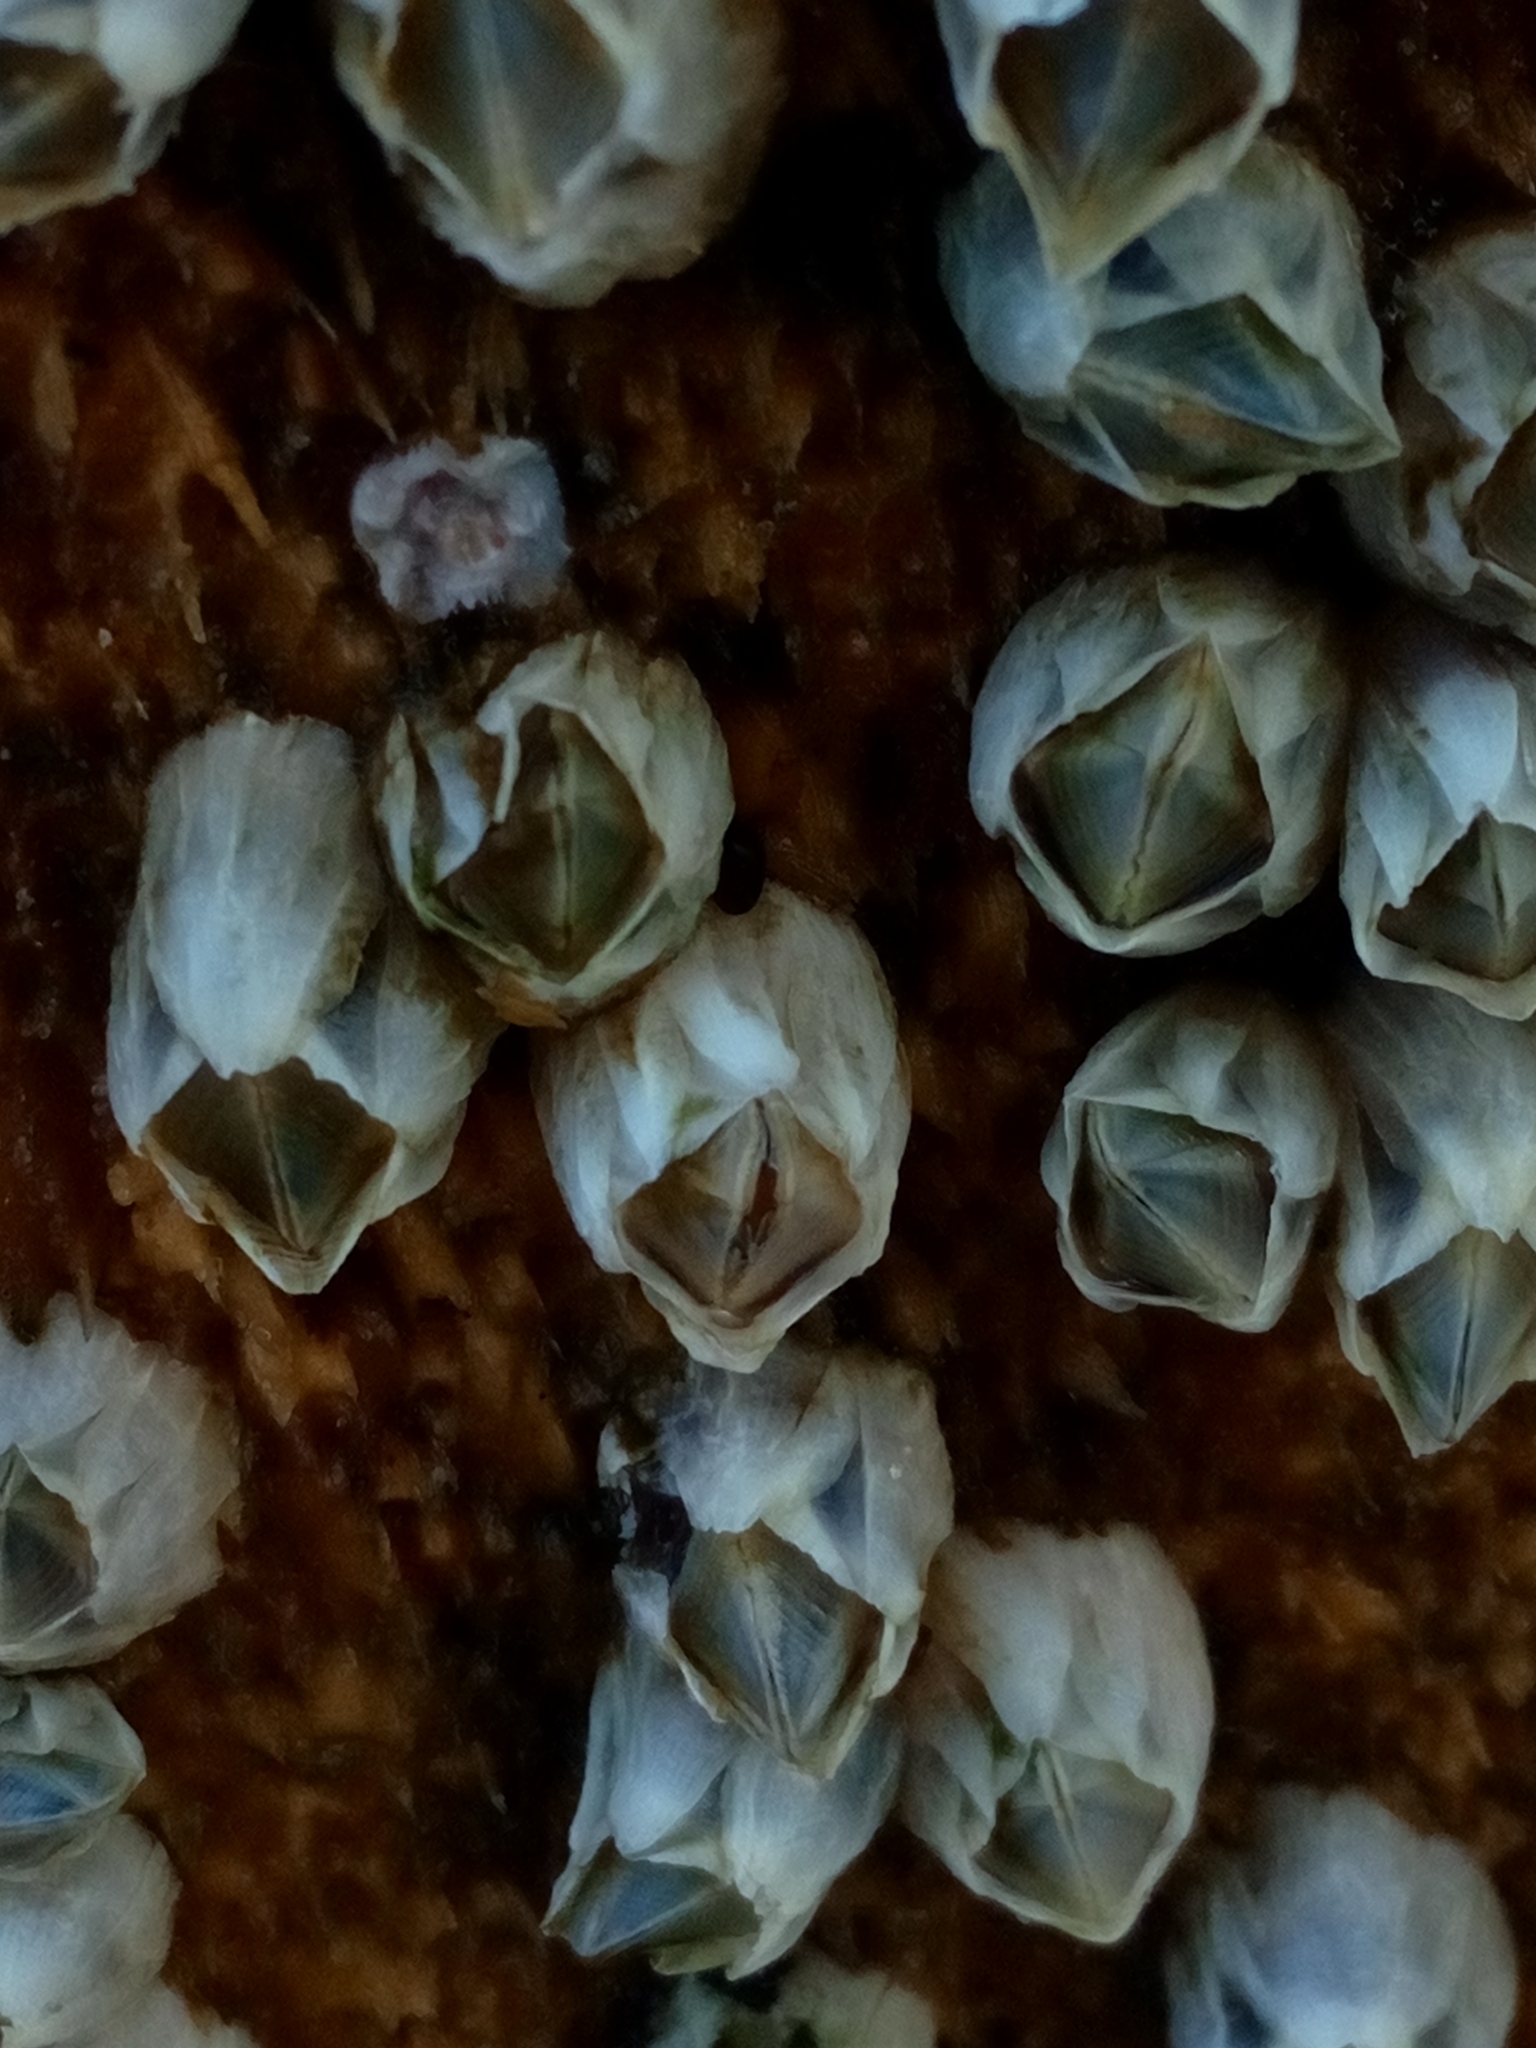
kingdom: Animalia
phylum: Arthropoda
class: Maxillopoda
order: Sessilia
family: Balanidae
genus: Amphibalanus
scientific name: Amphibalanus improvisus
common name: Bay barnacle
